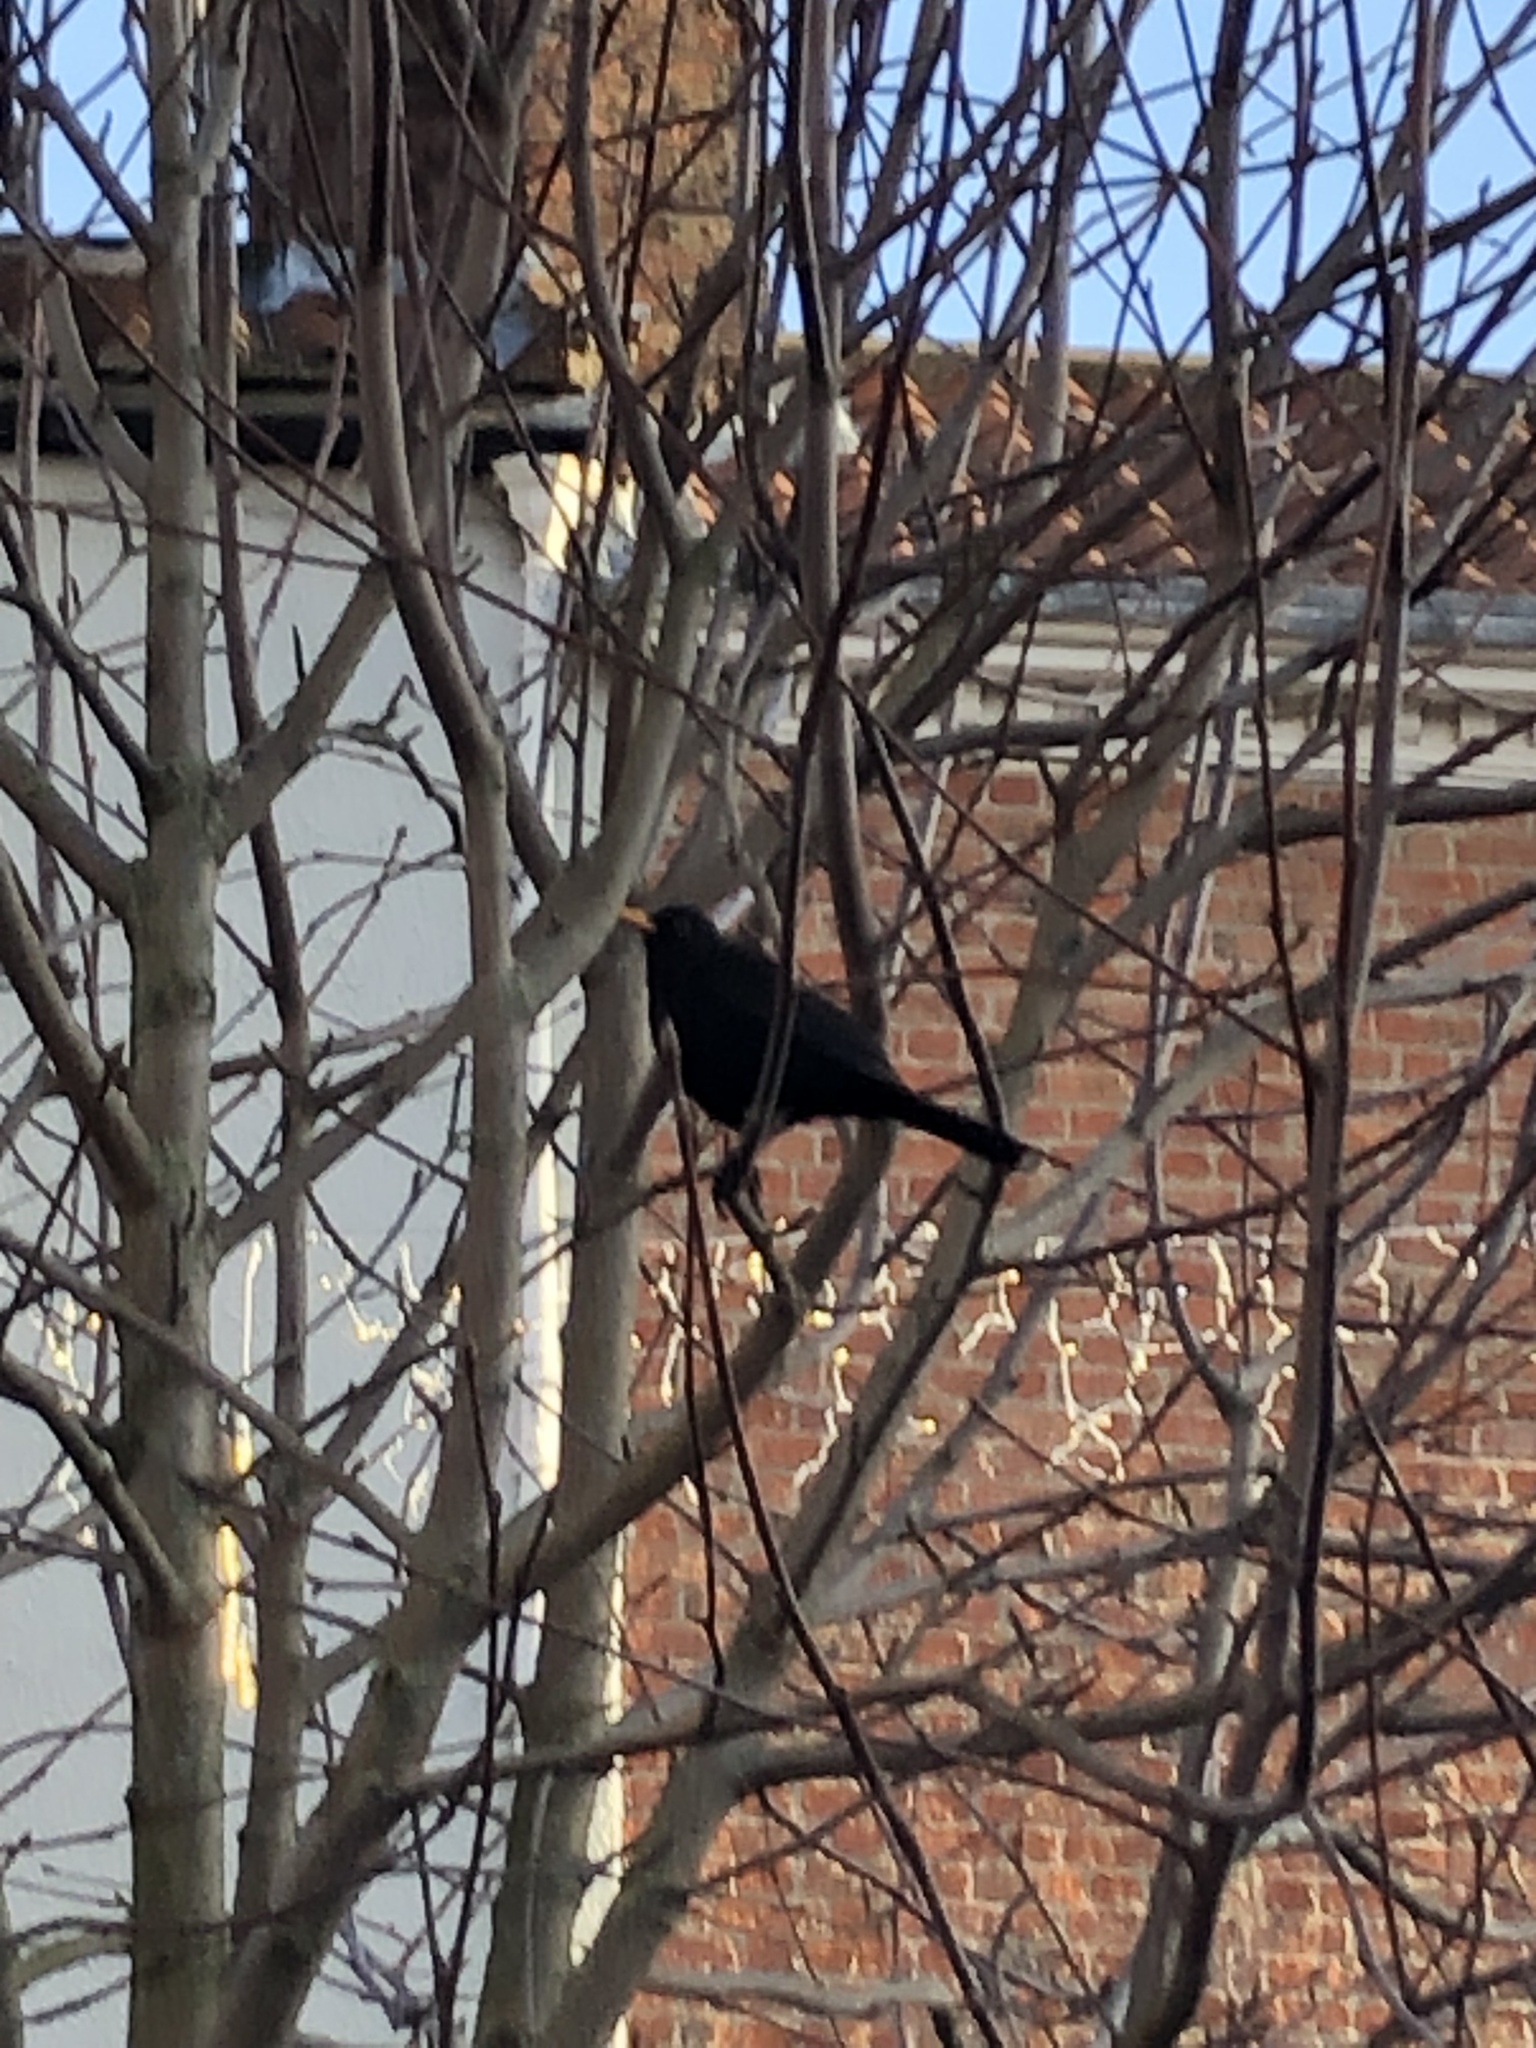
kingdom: Animalia
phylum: Chordata
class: Aves
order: Passeriformes
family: Turdidae
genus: Turdus
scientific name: Turdus merula
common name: Common blackbird
